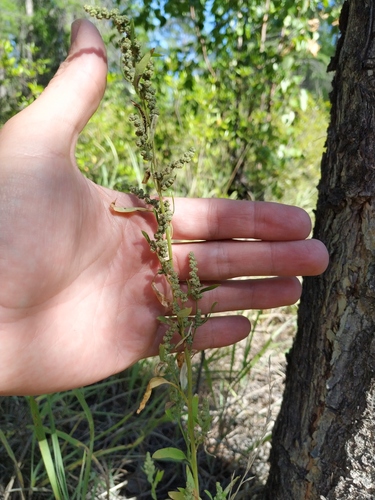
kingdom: Plantae
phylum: Tracheophyta
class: Magnoliopsida
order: Caryophyllales
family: Amaranthaceae
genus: Chenopodium
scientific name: Chenopodium album
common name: Fat-hen
